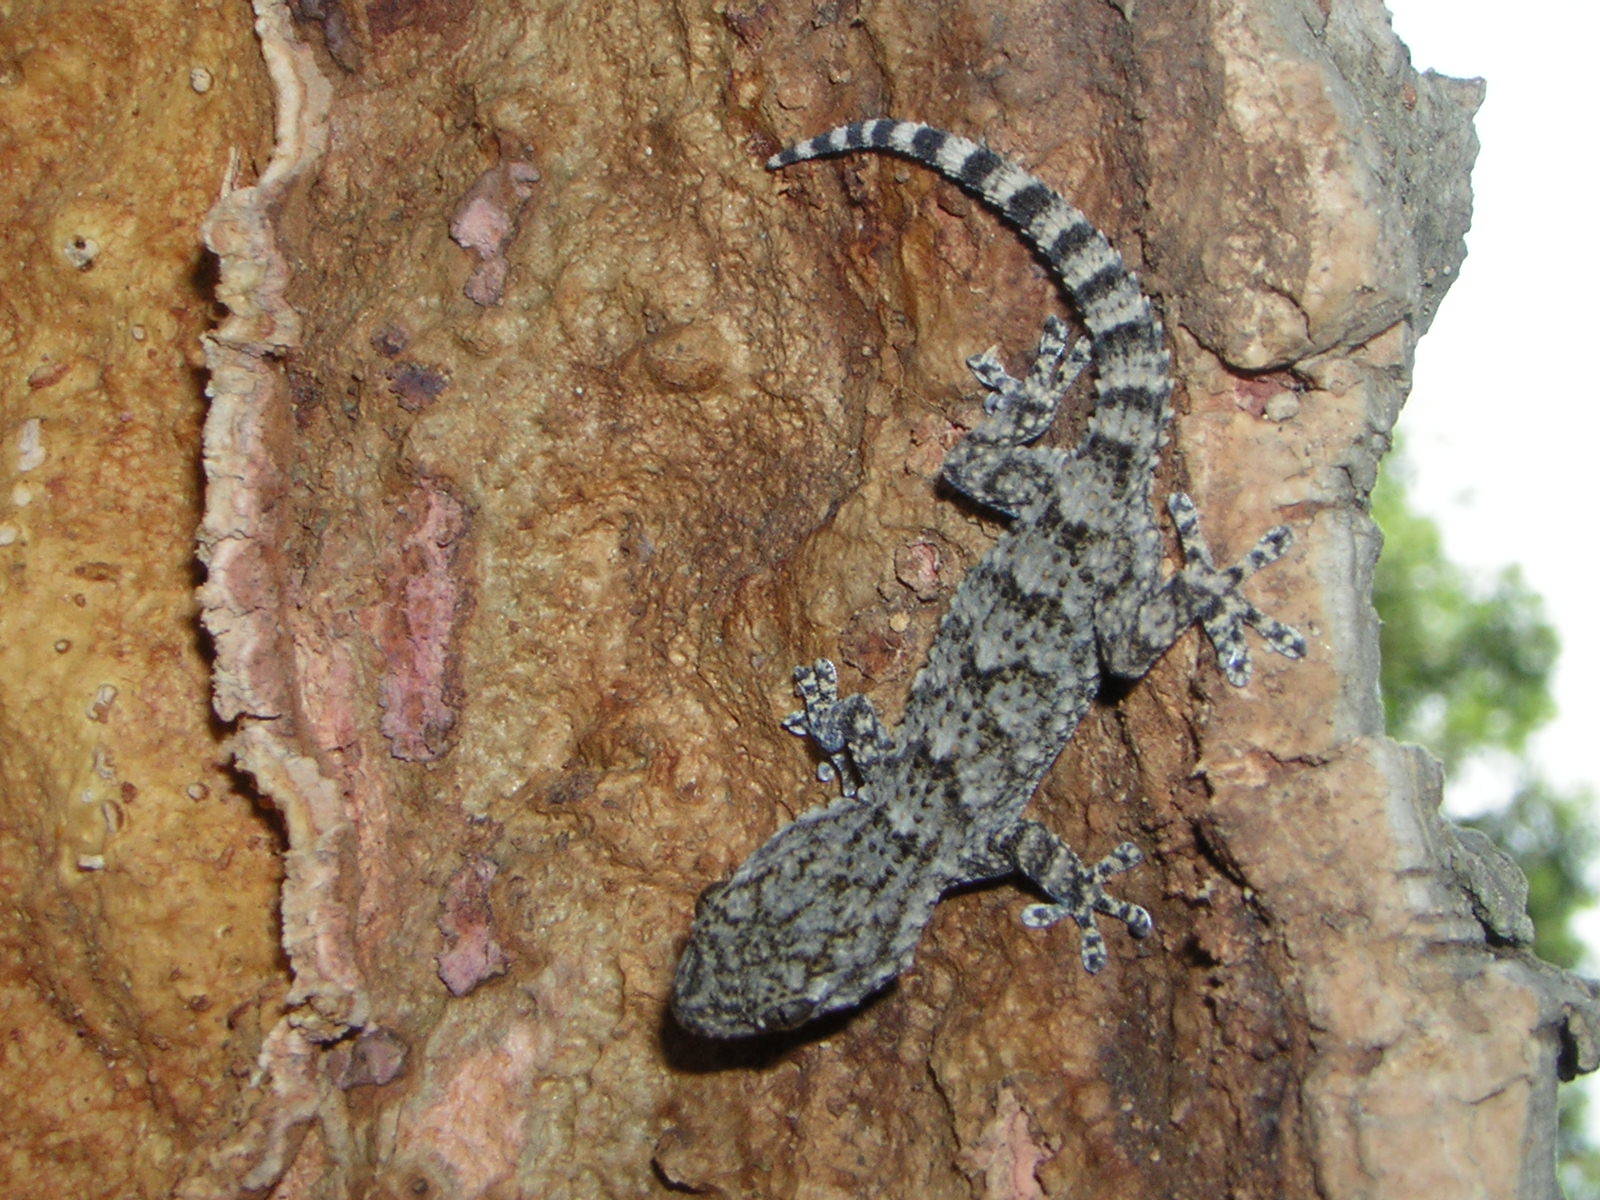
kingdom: Animalia
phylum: Chordata
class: Squamata
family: Phyllodactylidae
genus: Tarentola
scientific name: Tarentola mauritanica
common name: Moorish gecko
